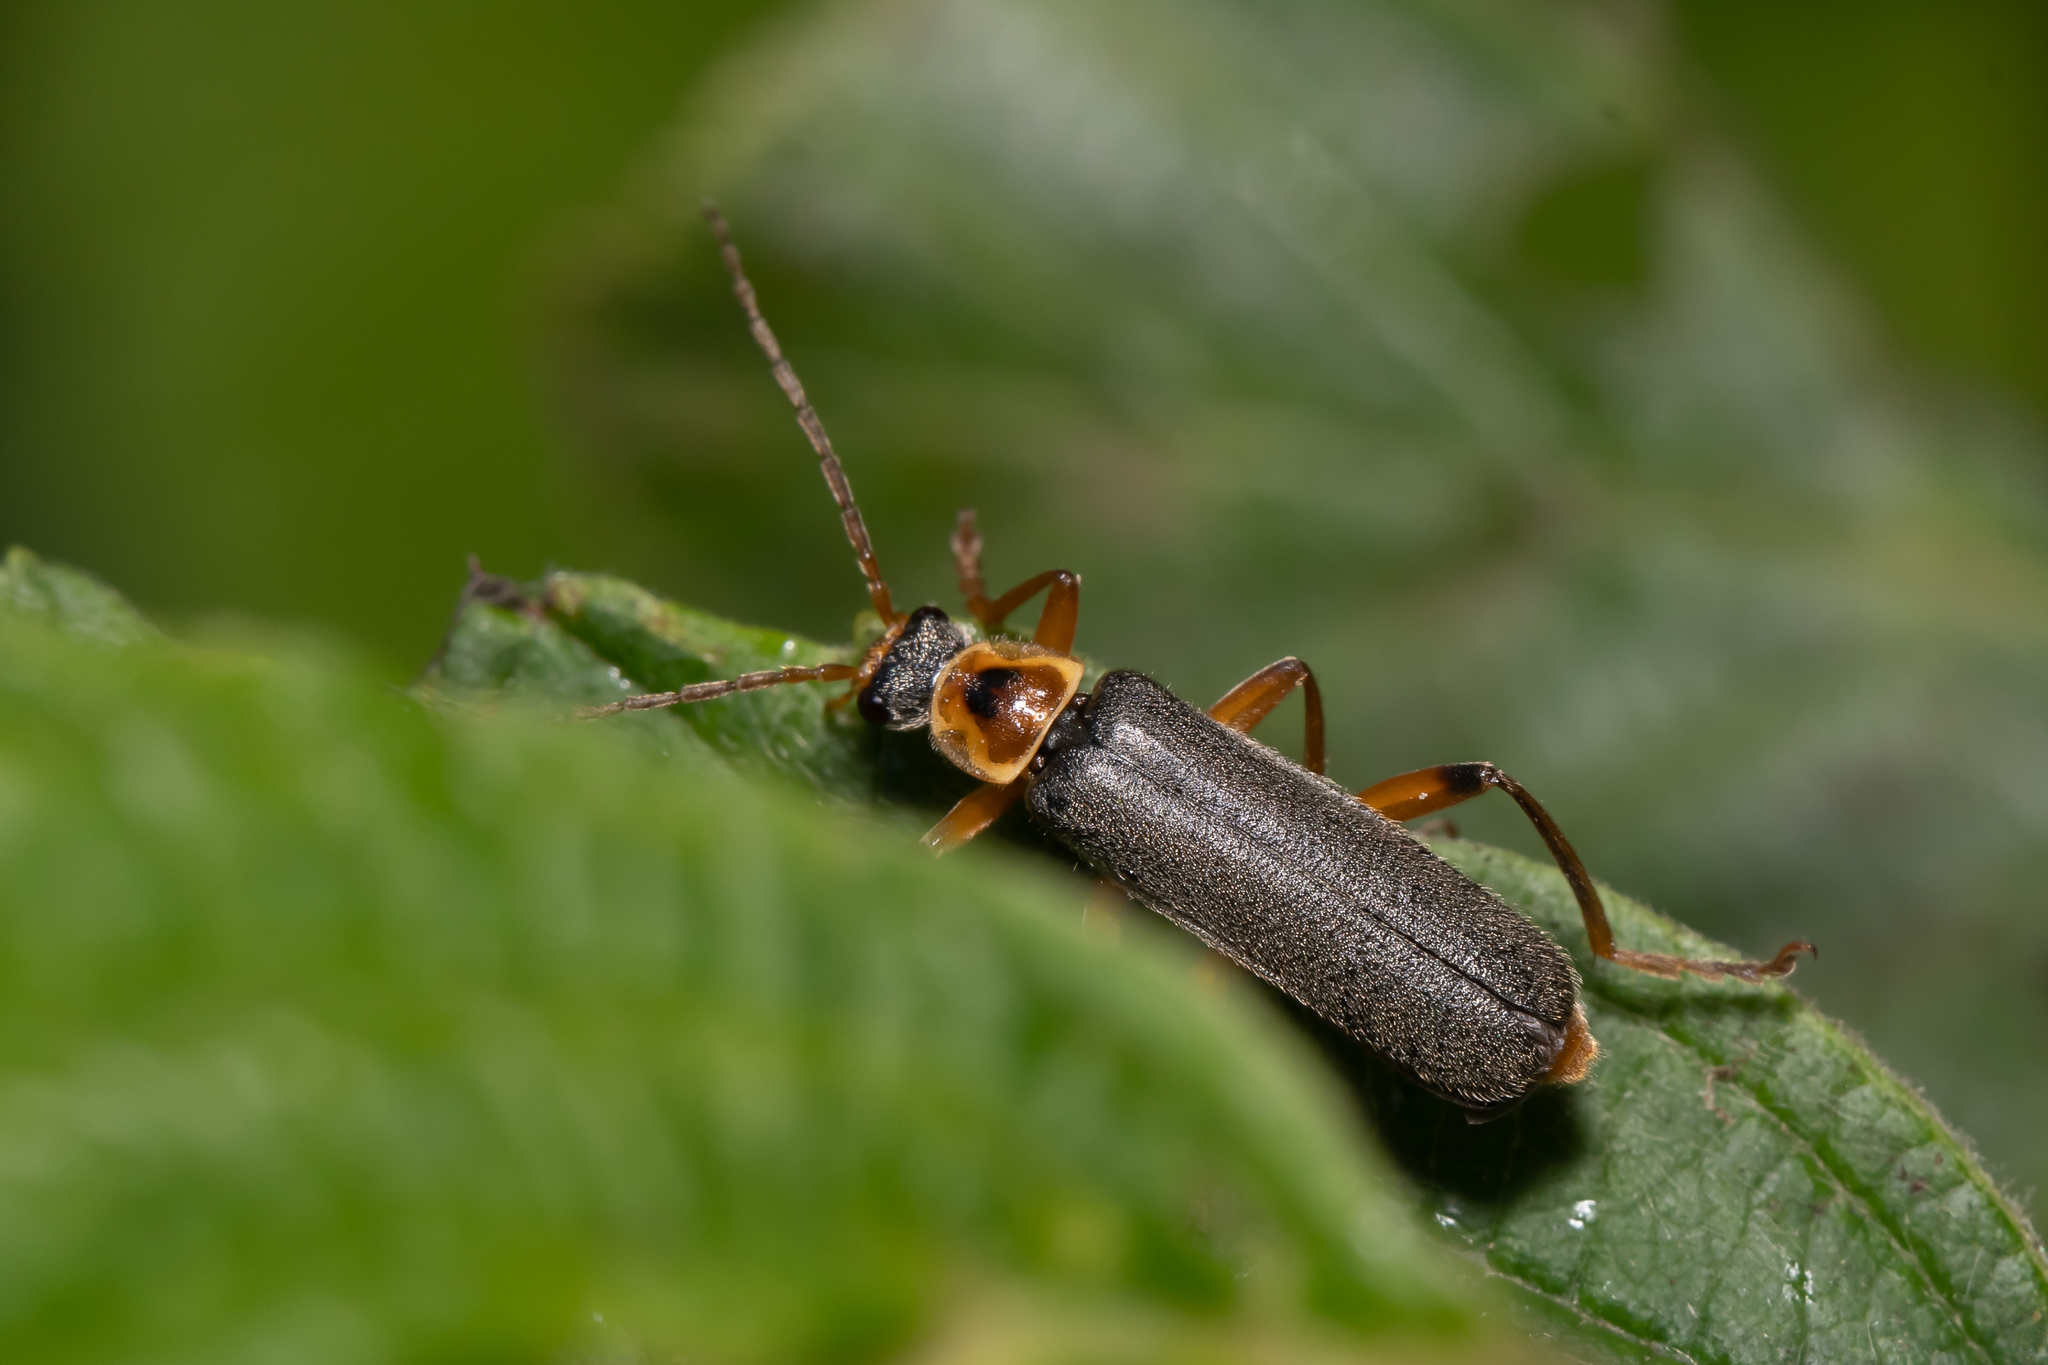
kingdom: Animalia
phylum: Arthropoda
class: Insecta
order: Coleoptera
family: Cantharidae
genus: Cantharis
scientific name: Cantharis nigricans
